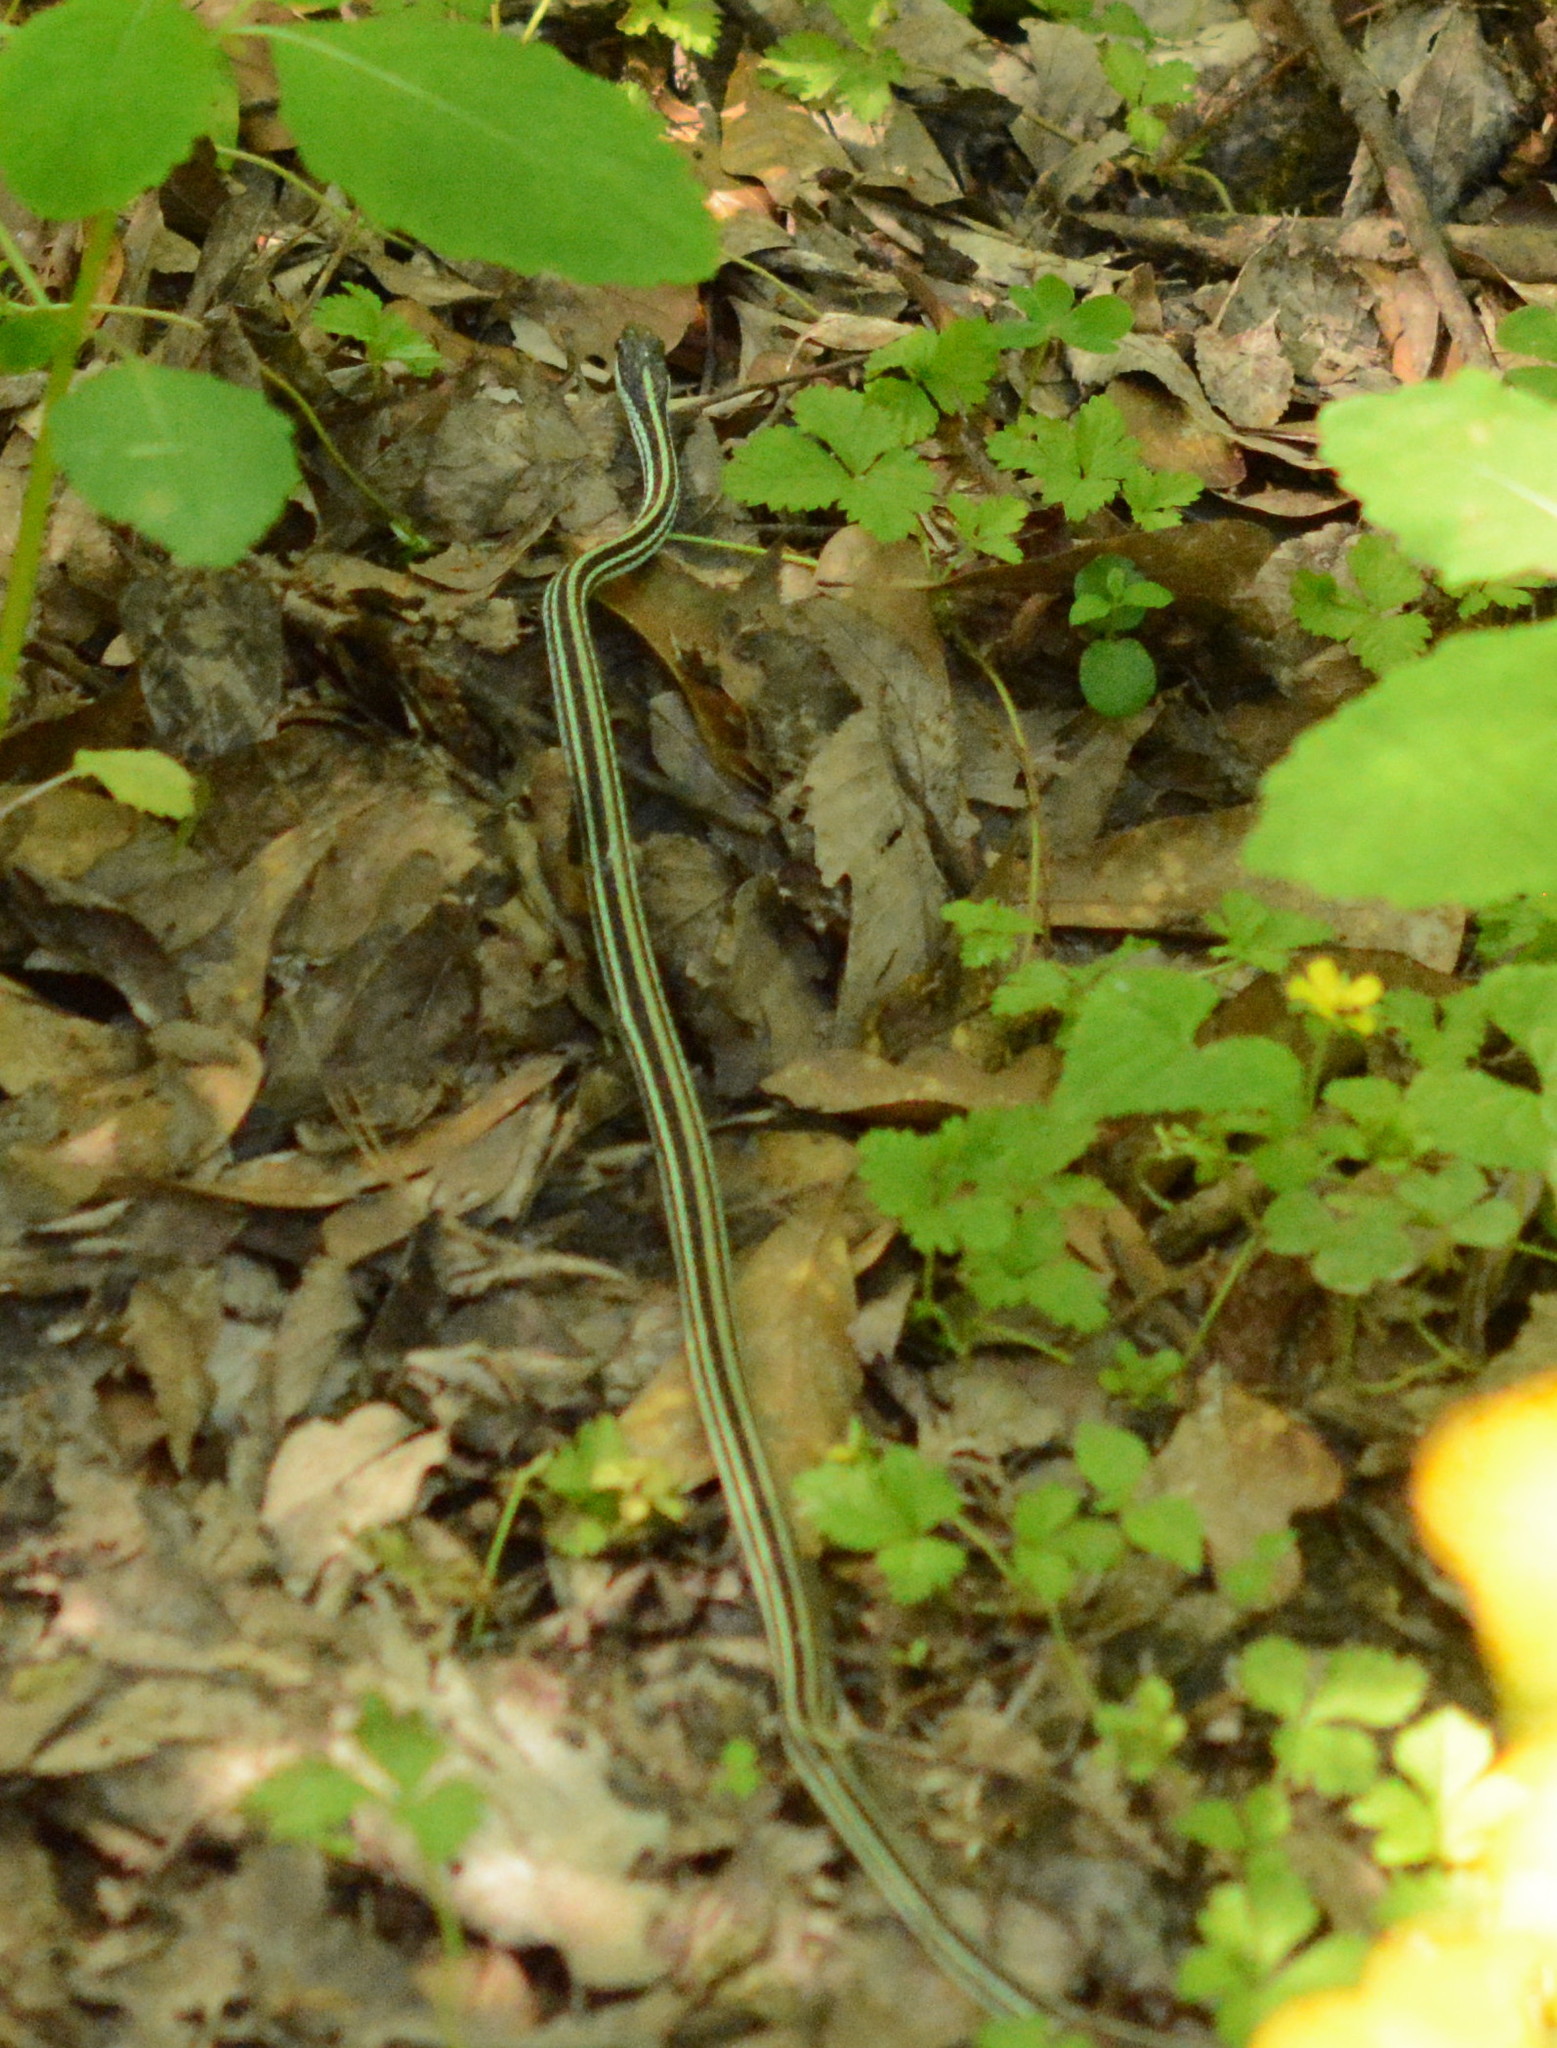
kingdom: Animalia
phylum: Chordata
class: Squamata
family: Colubridae
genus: Thamnophis
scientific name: Thamnophis proximus
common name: Western ribbon snake
